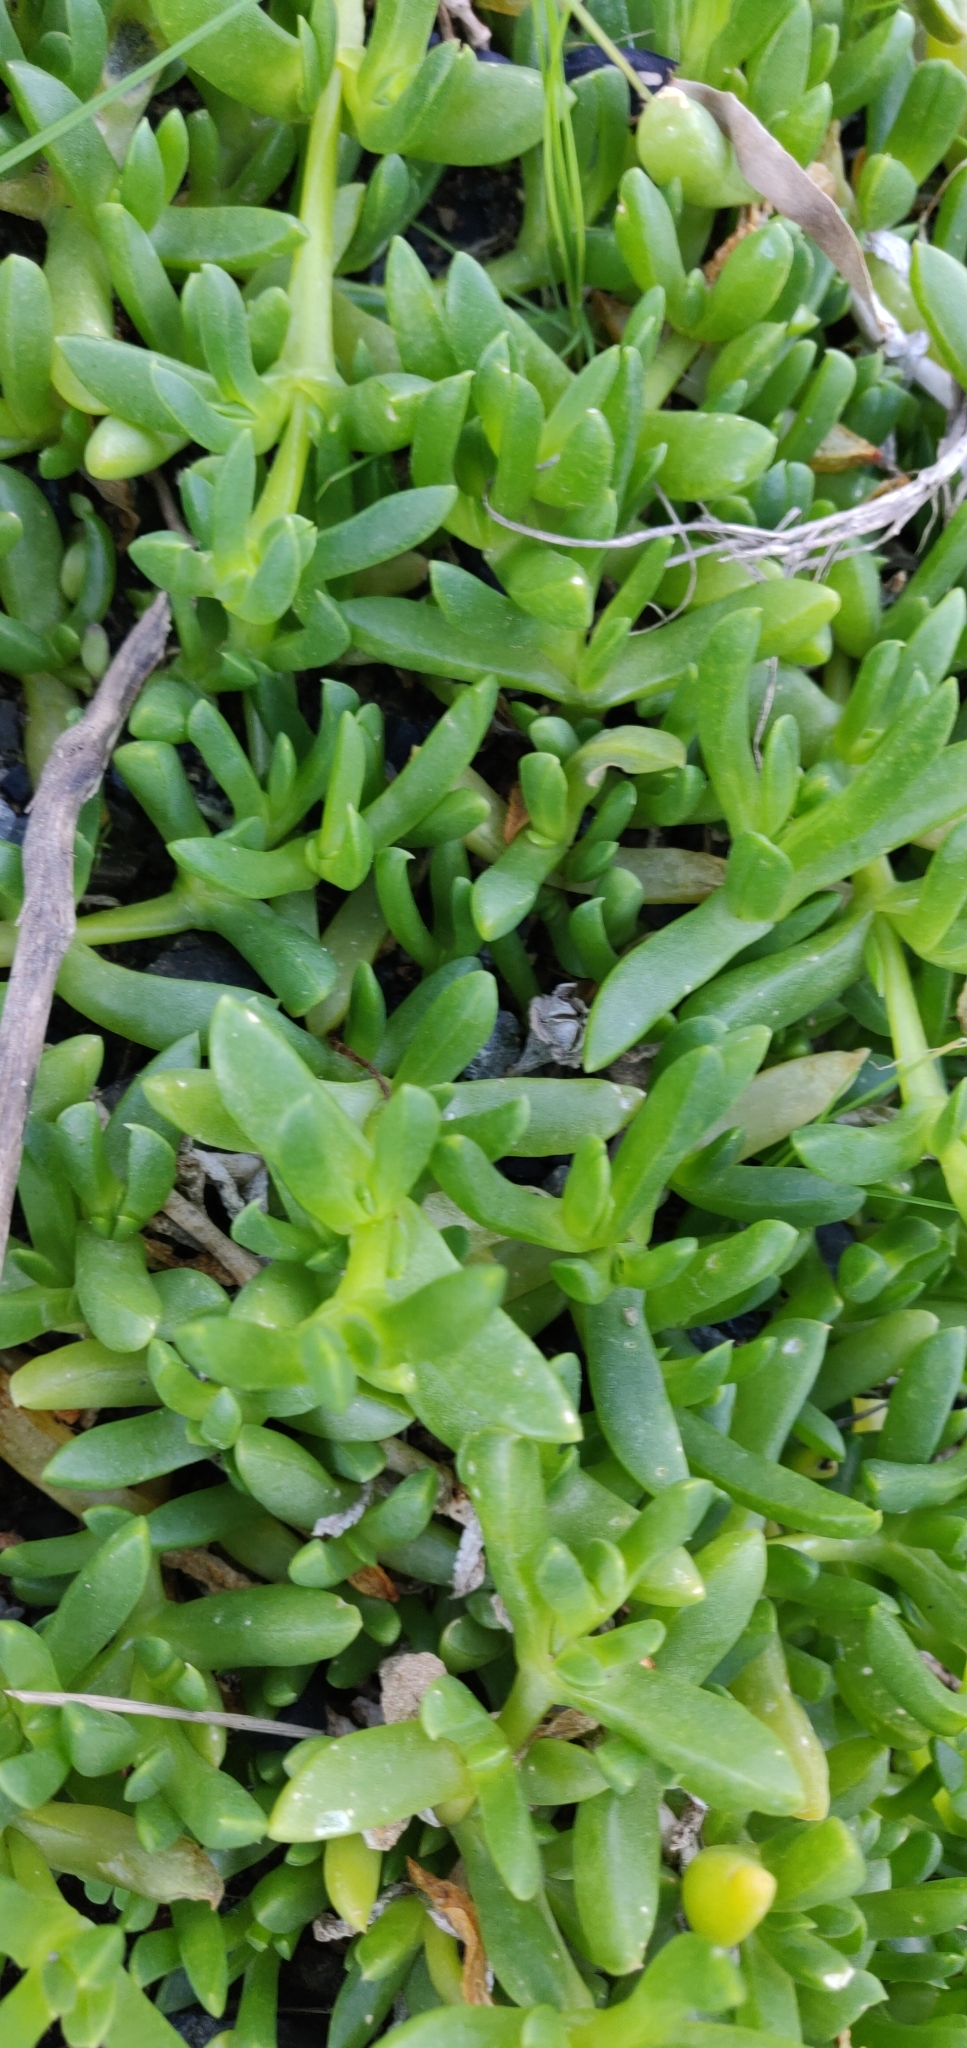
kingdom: Plantae
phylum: Tracheophyta
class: Magnoliopsida
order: Caryophyllales
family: Aizoaceae
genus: Disphyma
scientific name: Disphyma australe
